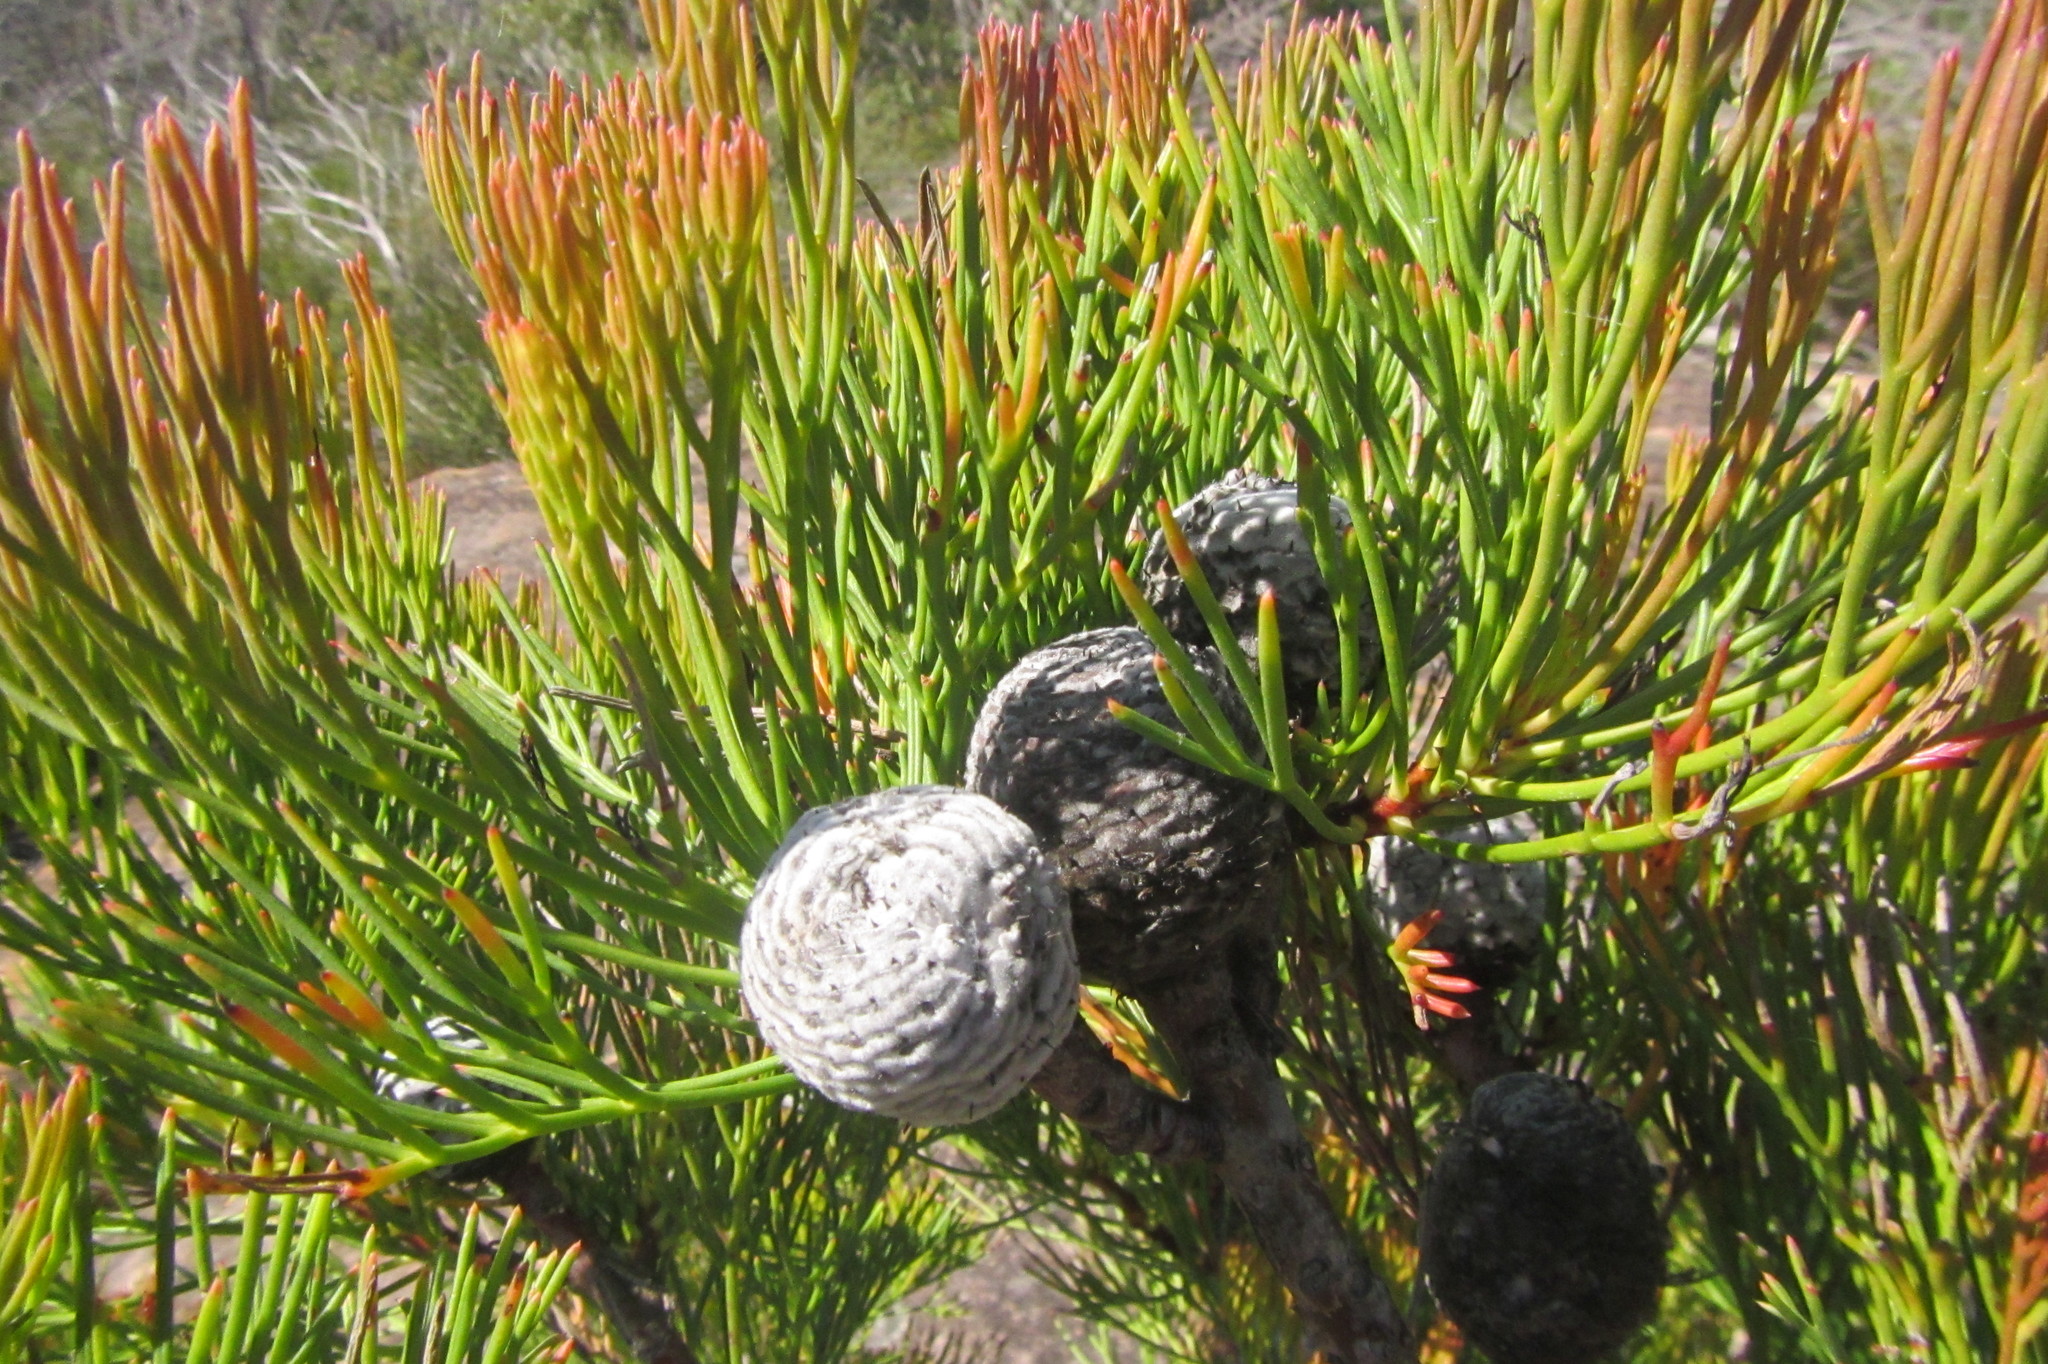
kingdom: Plantae
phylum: Tracheophyta
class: Magnoliopsida
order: Proteales
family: Proteaceae
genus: Isopogon
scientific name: Isopogon anethifolius
